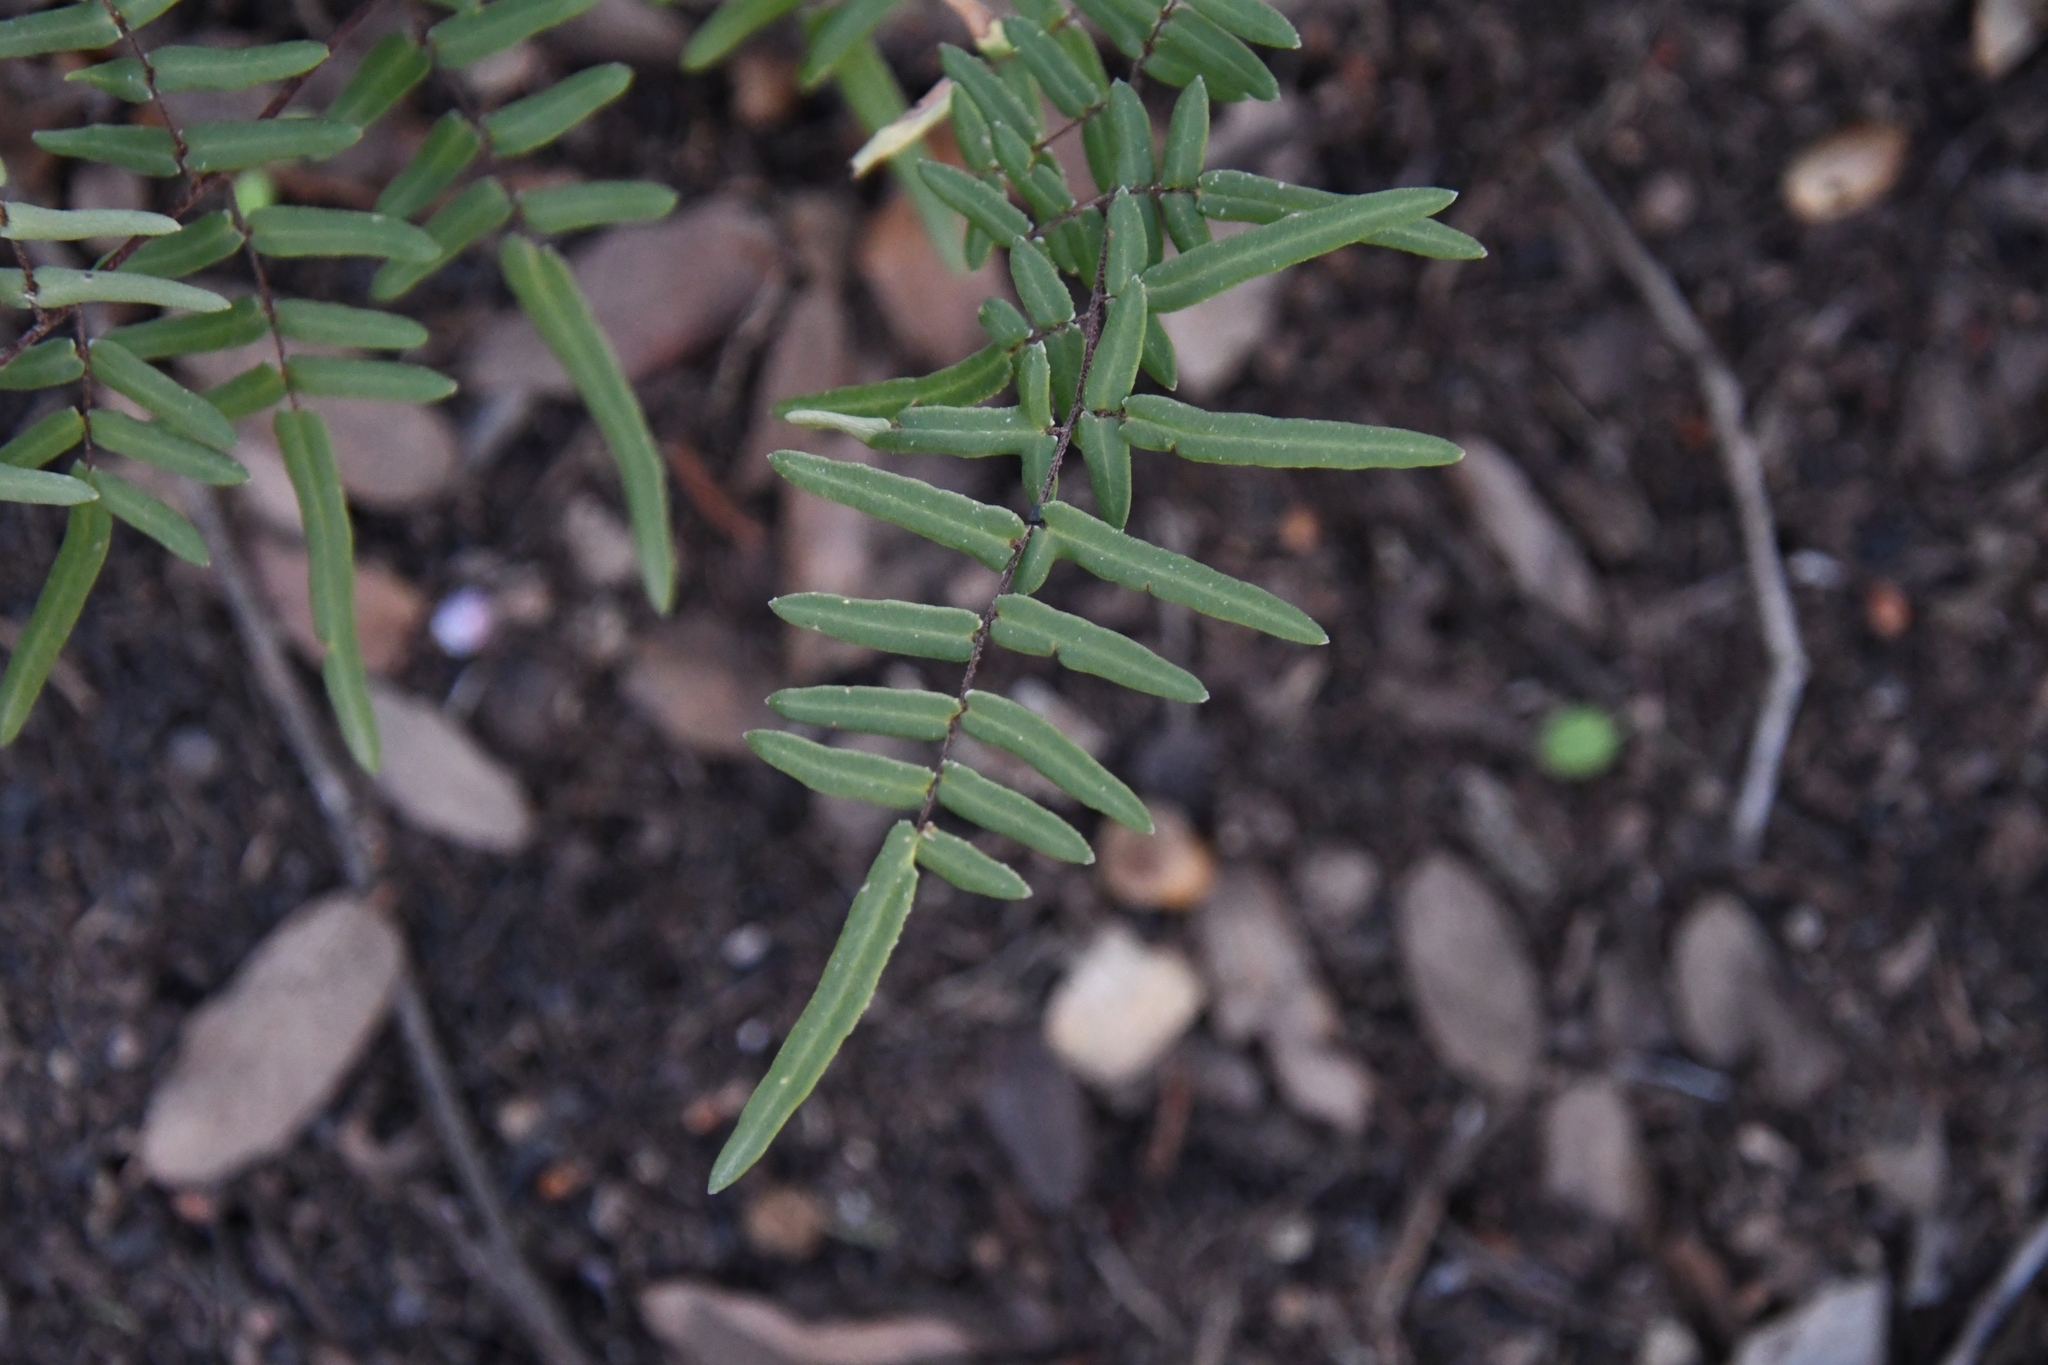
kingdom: Plantae
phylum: Tracheophyta
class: Polypodiopsida
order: Polypodiales
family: Pteridaceae
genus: Pellaea
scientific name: Pellaea atropurpurea
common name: Hairy cliffbrake
